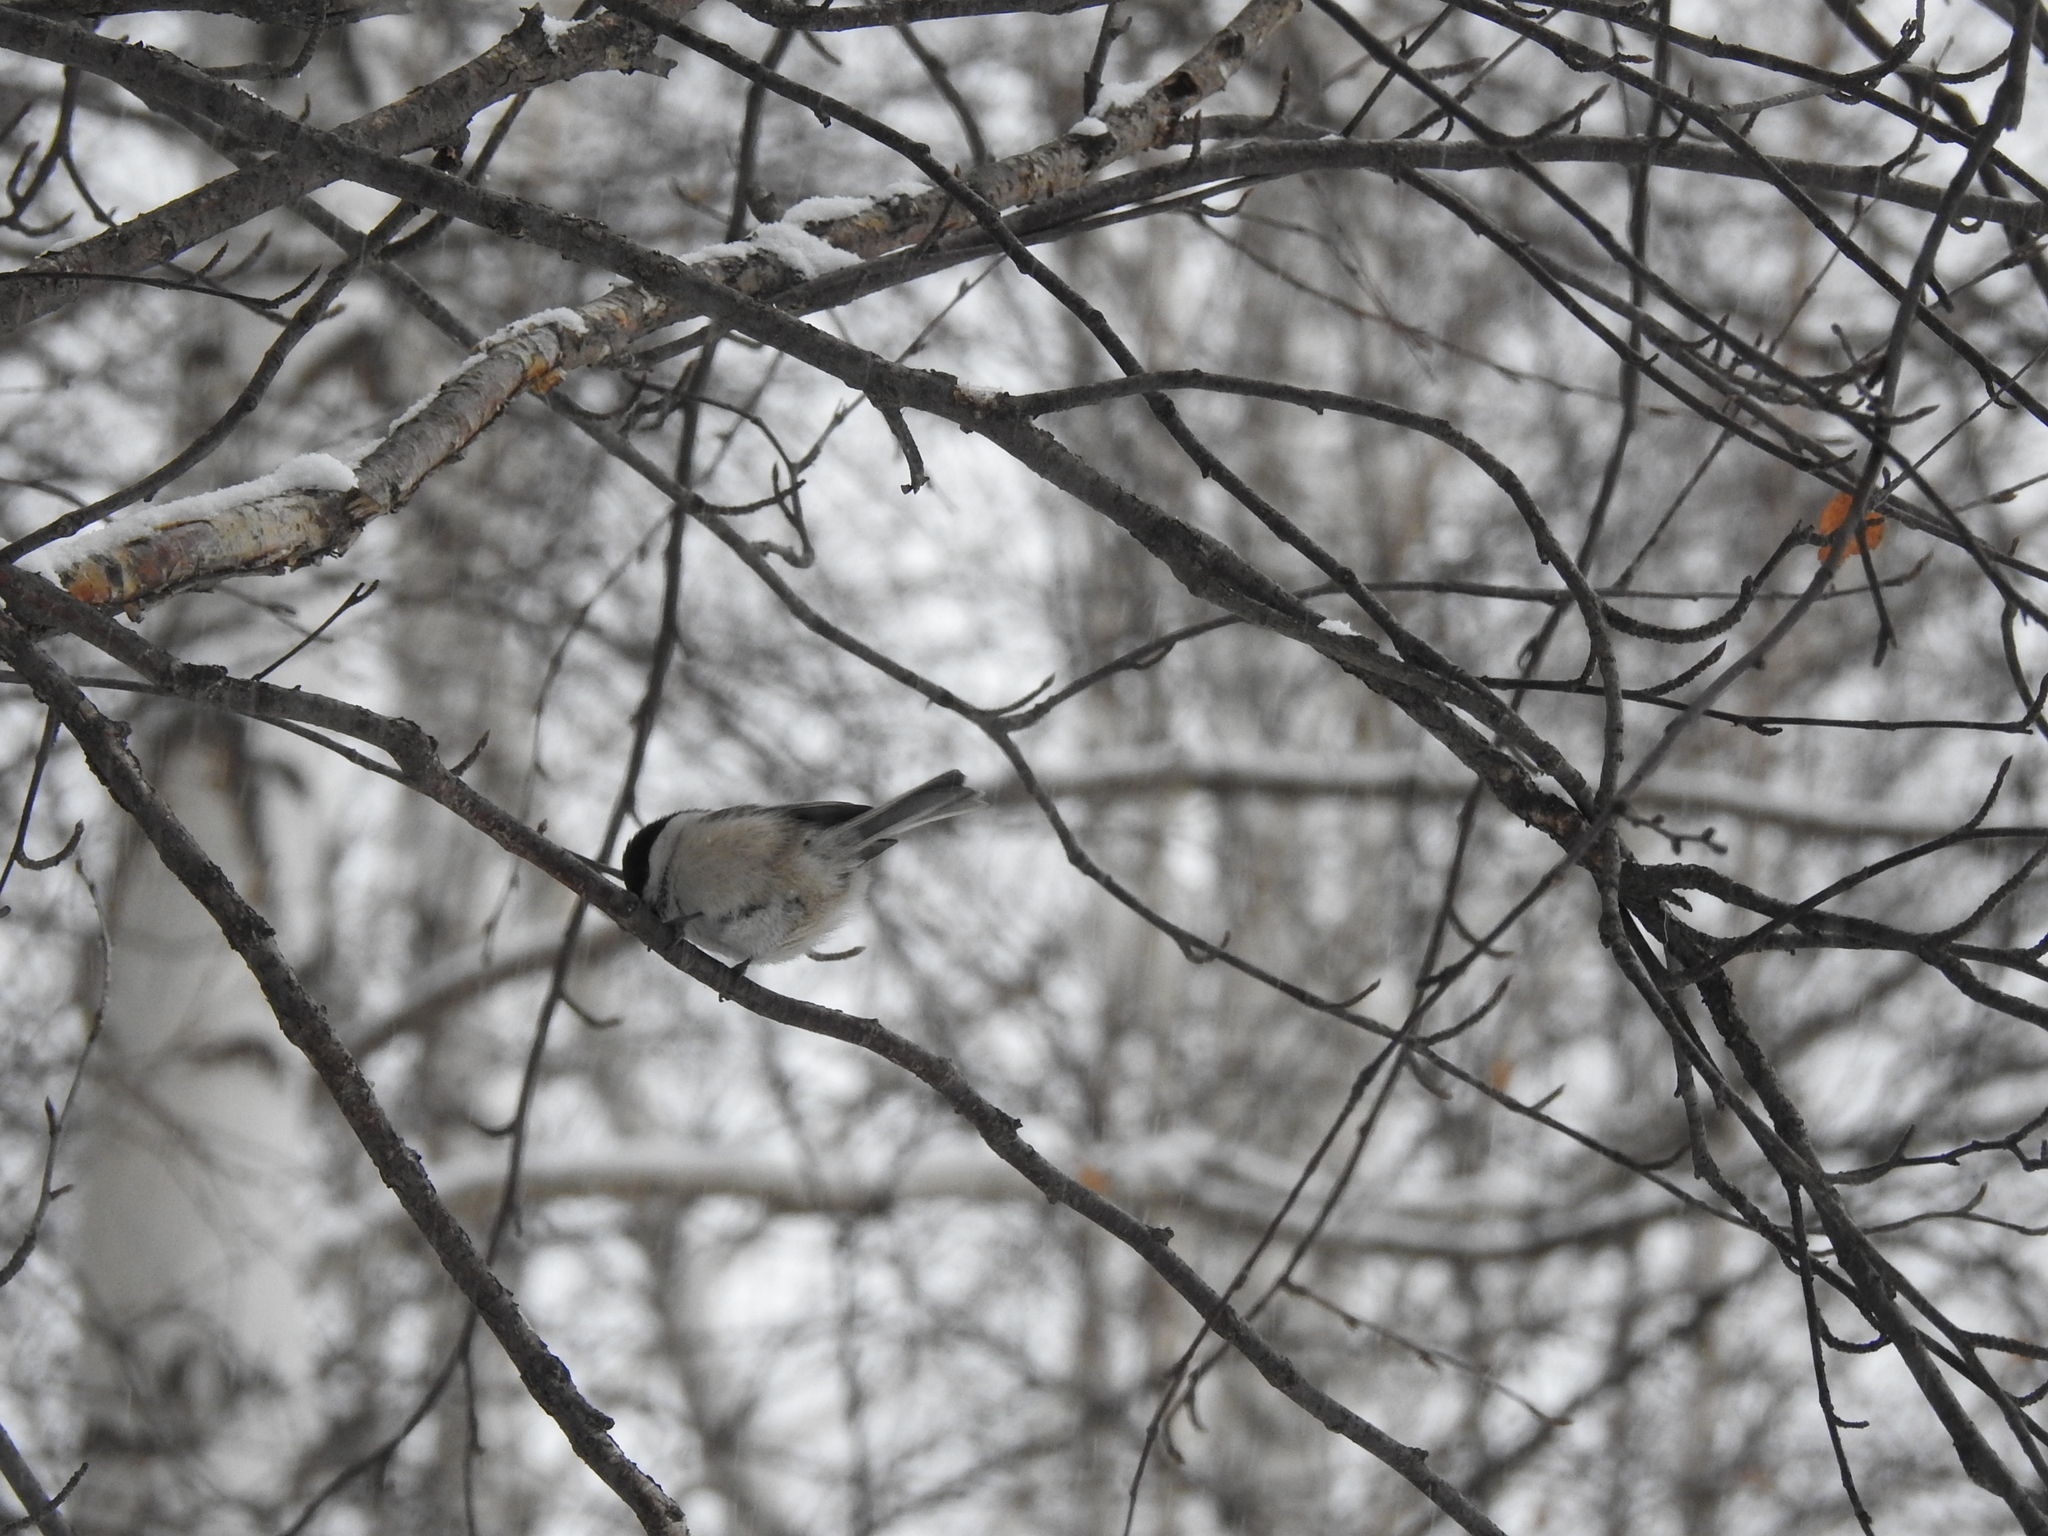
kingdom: Animalia
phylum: Chordata
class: Aves
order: Passeriformes
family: Paridae
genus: Poecile
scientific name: Poecile montanus
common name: Willow tit
